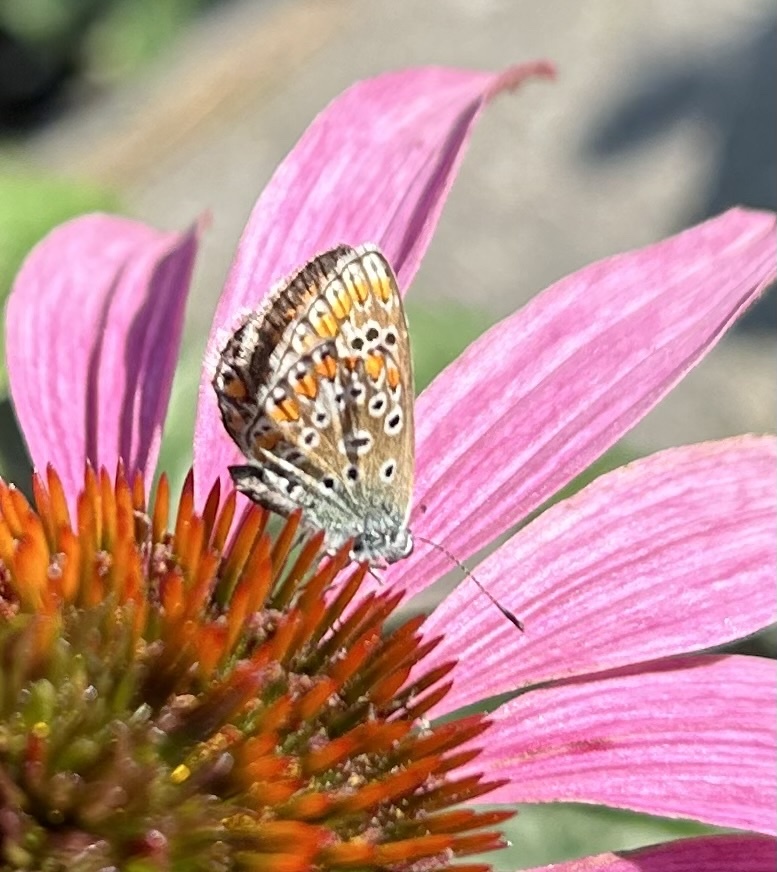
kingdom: Animalia
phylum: Arthropoda
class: Insecta
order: Lepidoptera
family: Lycaenidae
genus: Polyommatus
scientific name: Polyommatus icarus
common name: Common blue
